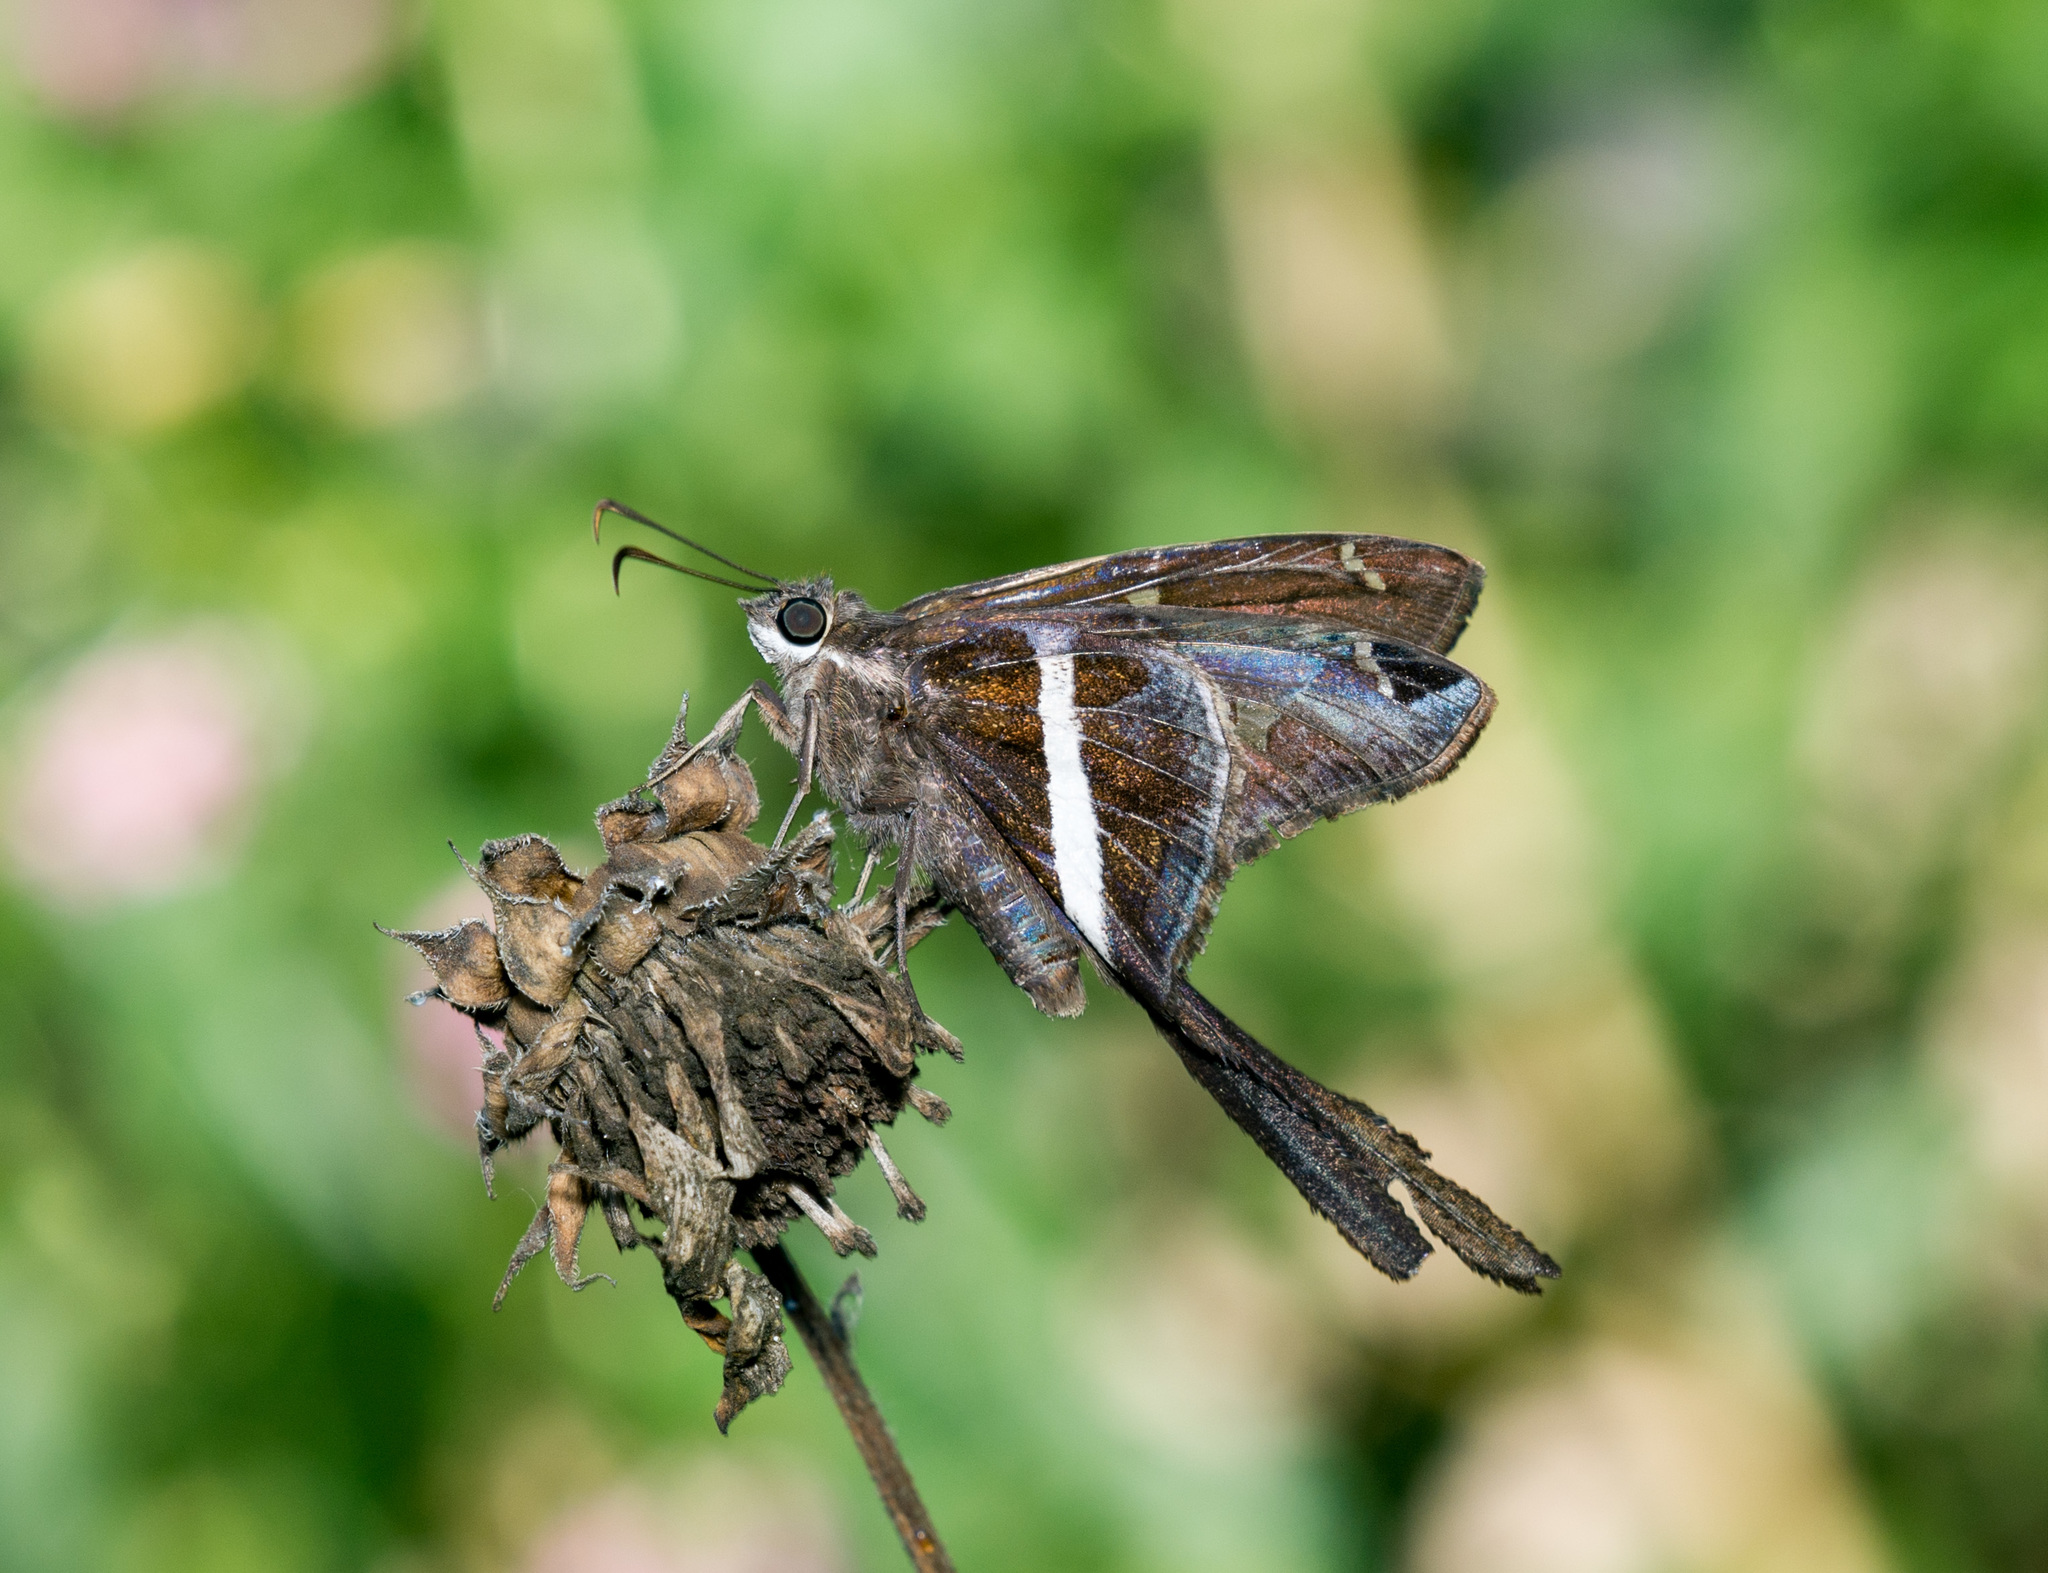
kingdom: Animalia
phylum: Arthropoda
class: Insecta
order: Lepidoptera
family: Hesperiidae
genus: Chioides
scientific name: Chioides catillus
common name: Silverbanded skipper
